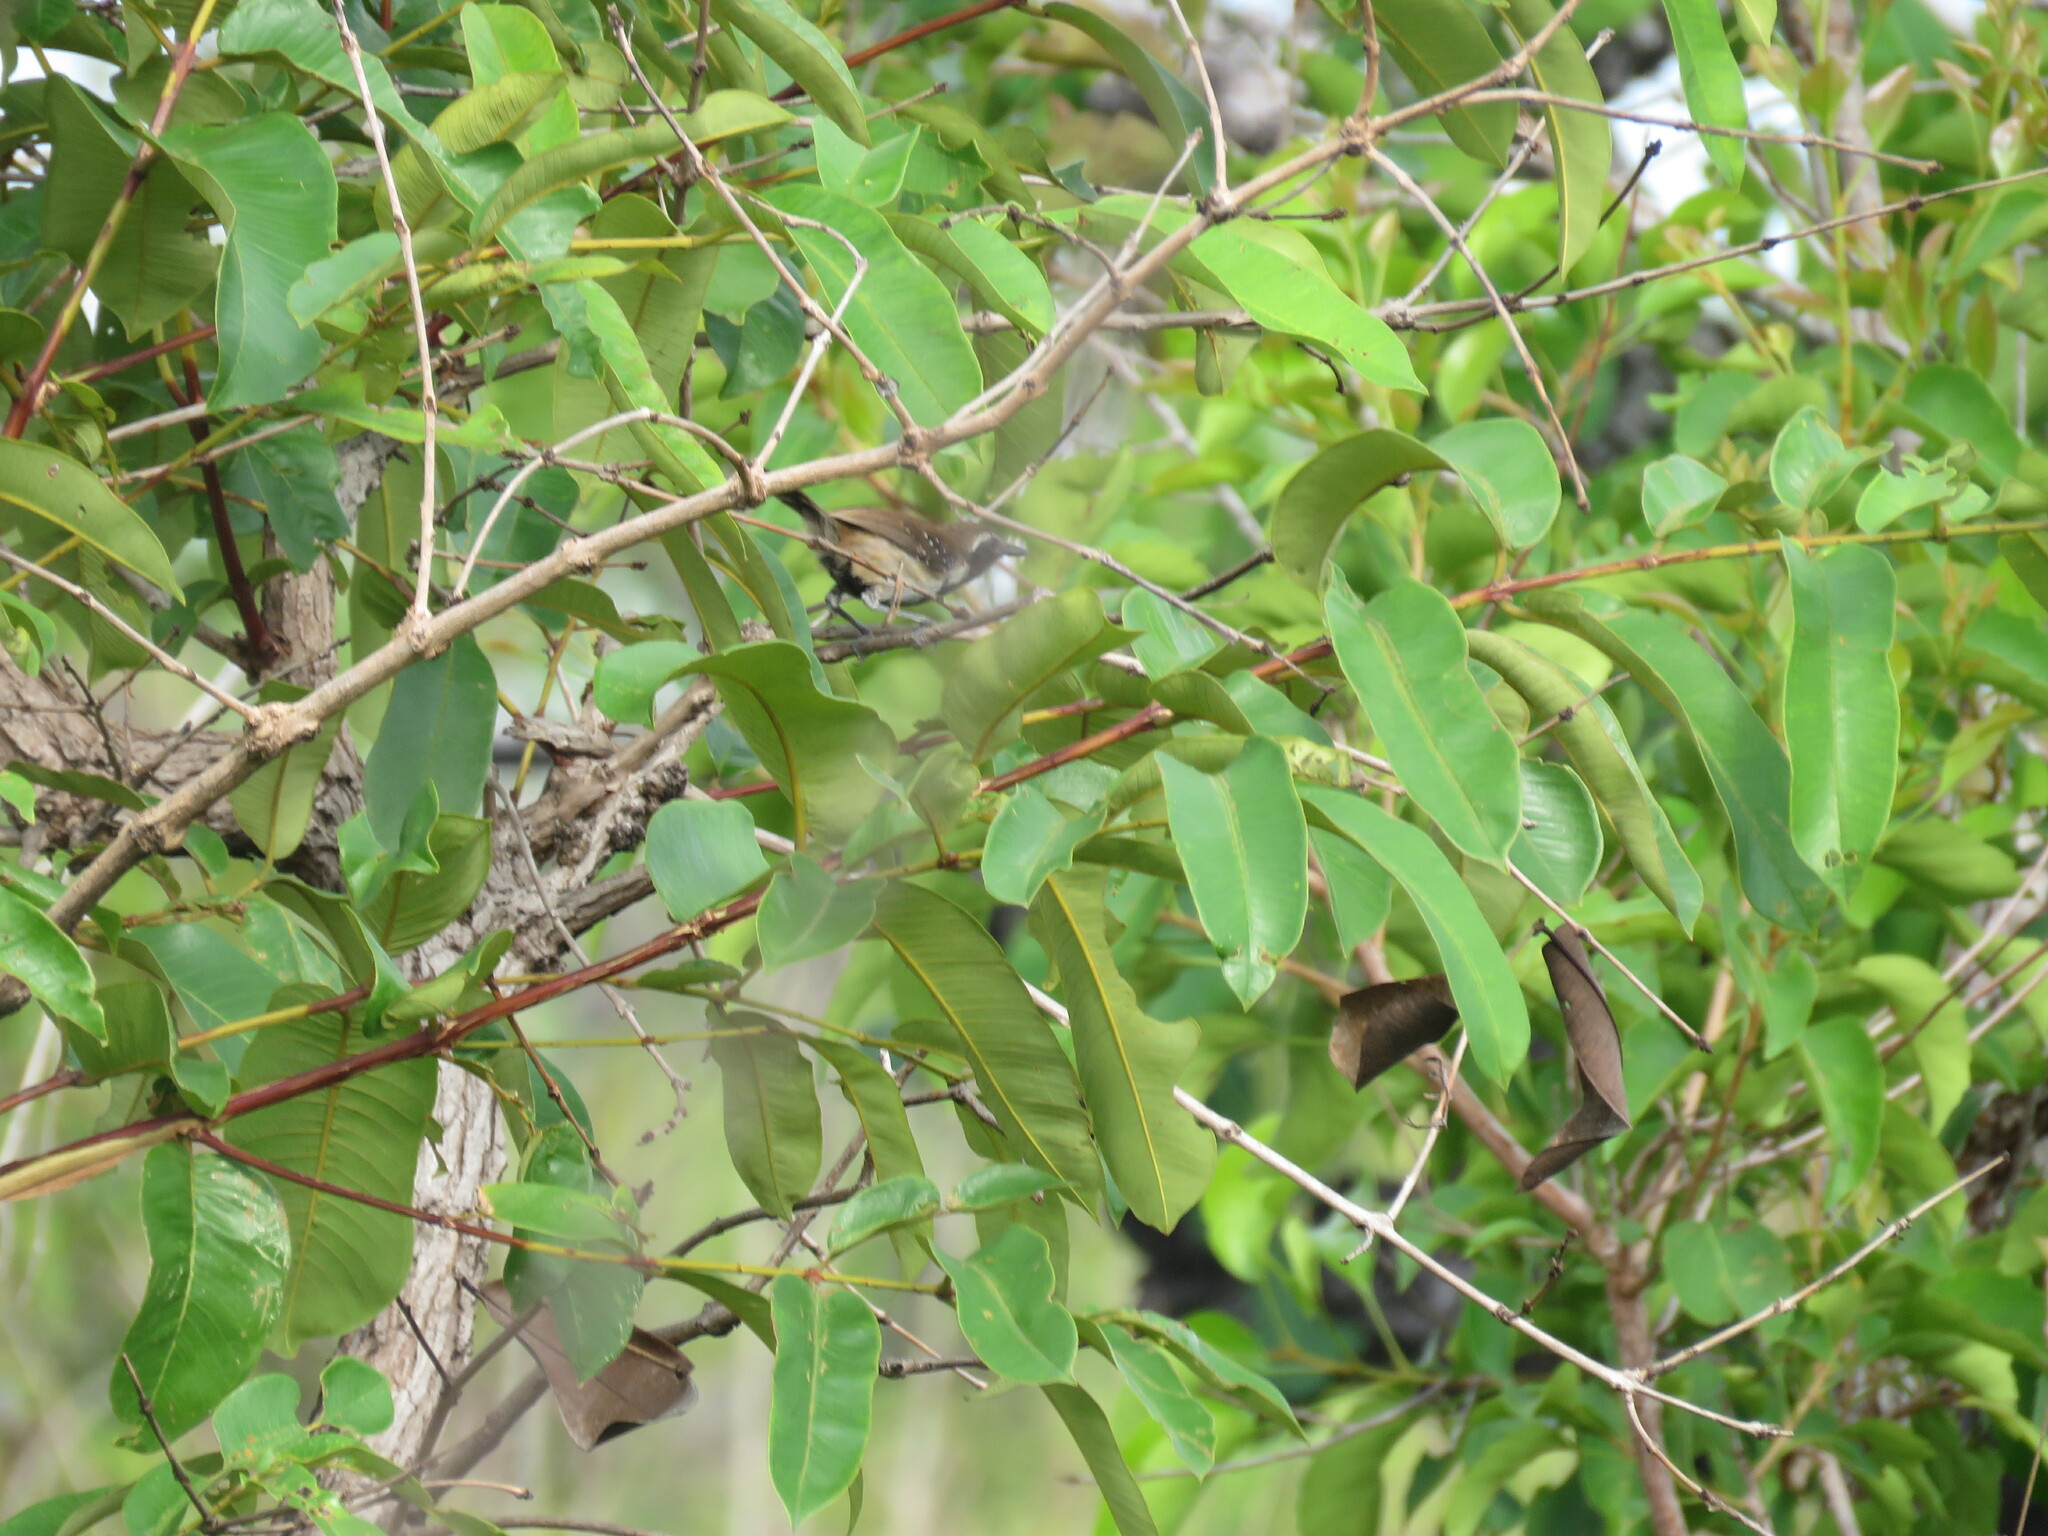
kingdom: Animalia
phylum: Chordata
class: Aves
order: Passeriformes
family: Thamnophilidae
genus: Formicivora
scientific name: Formicivora rufa
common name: Rusty-backed antwren
